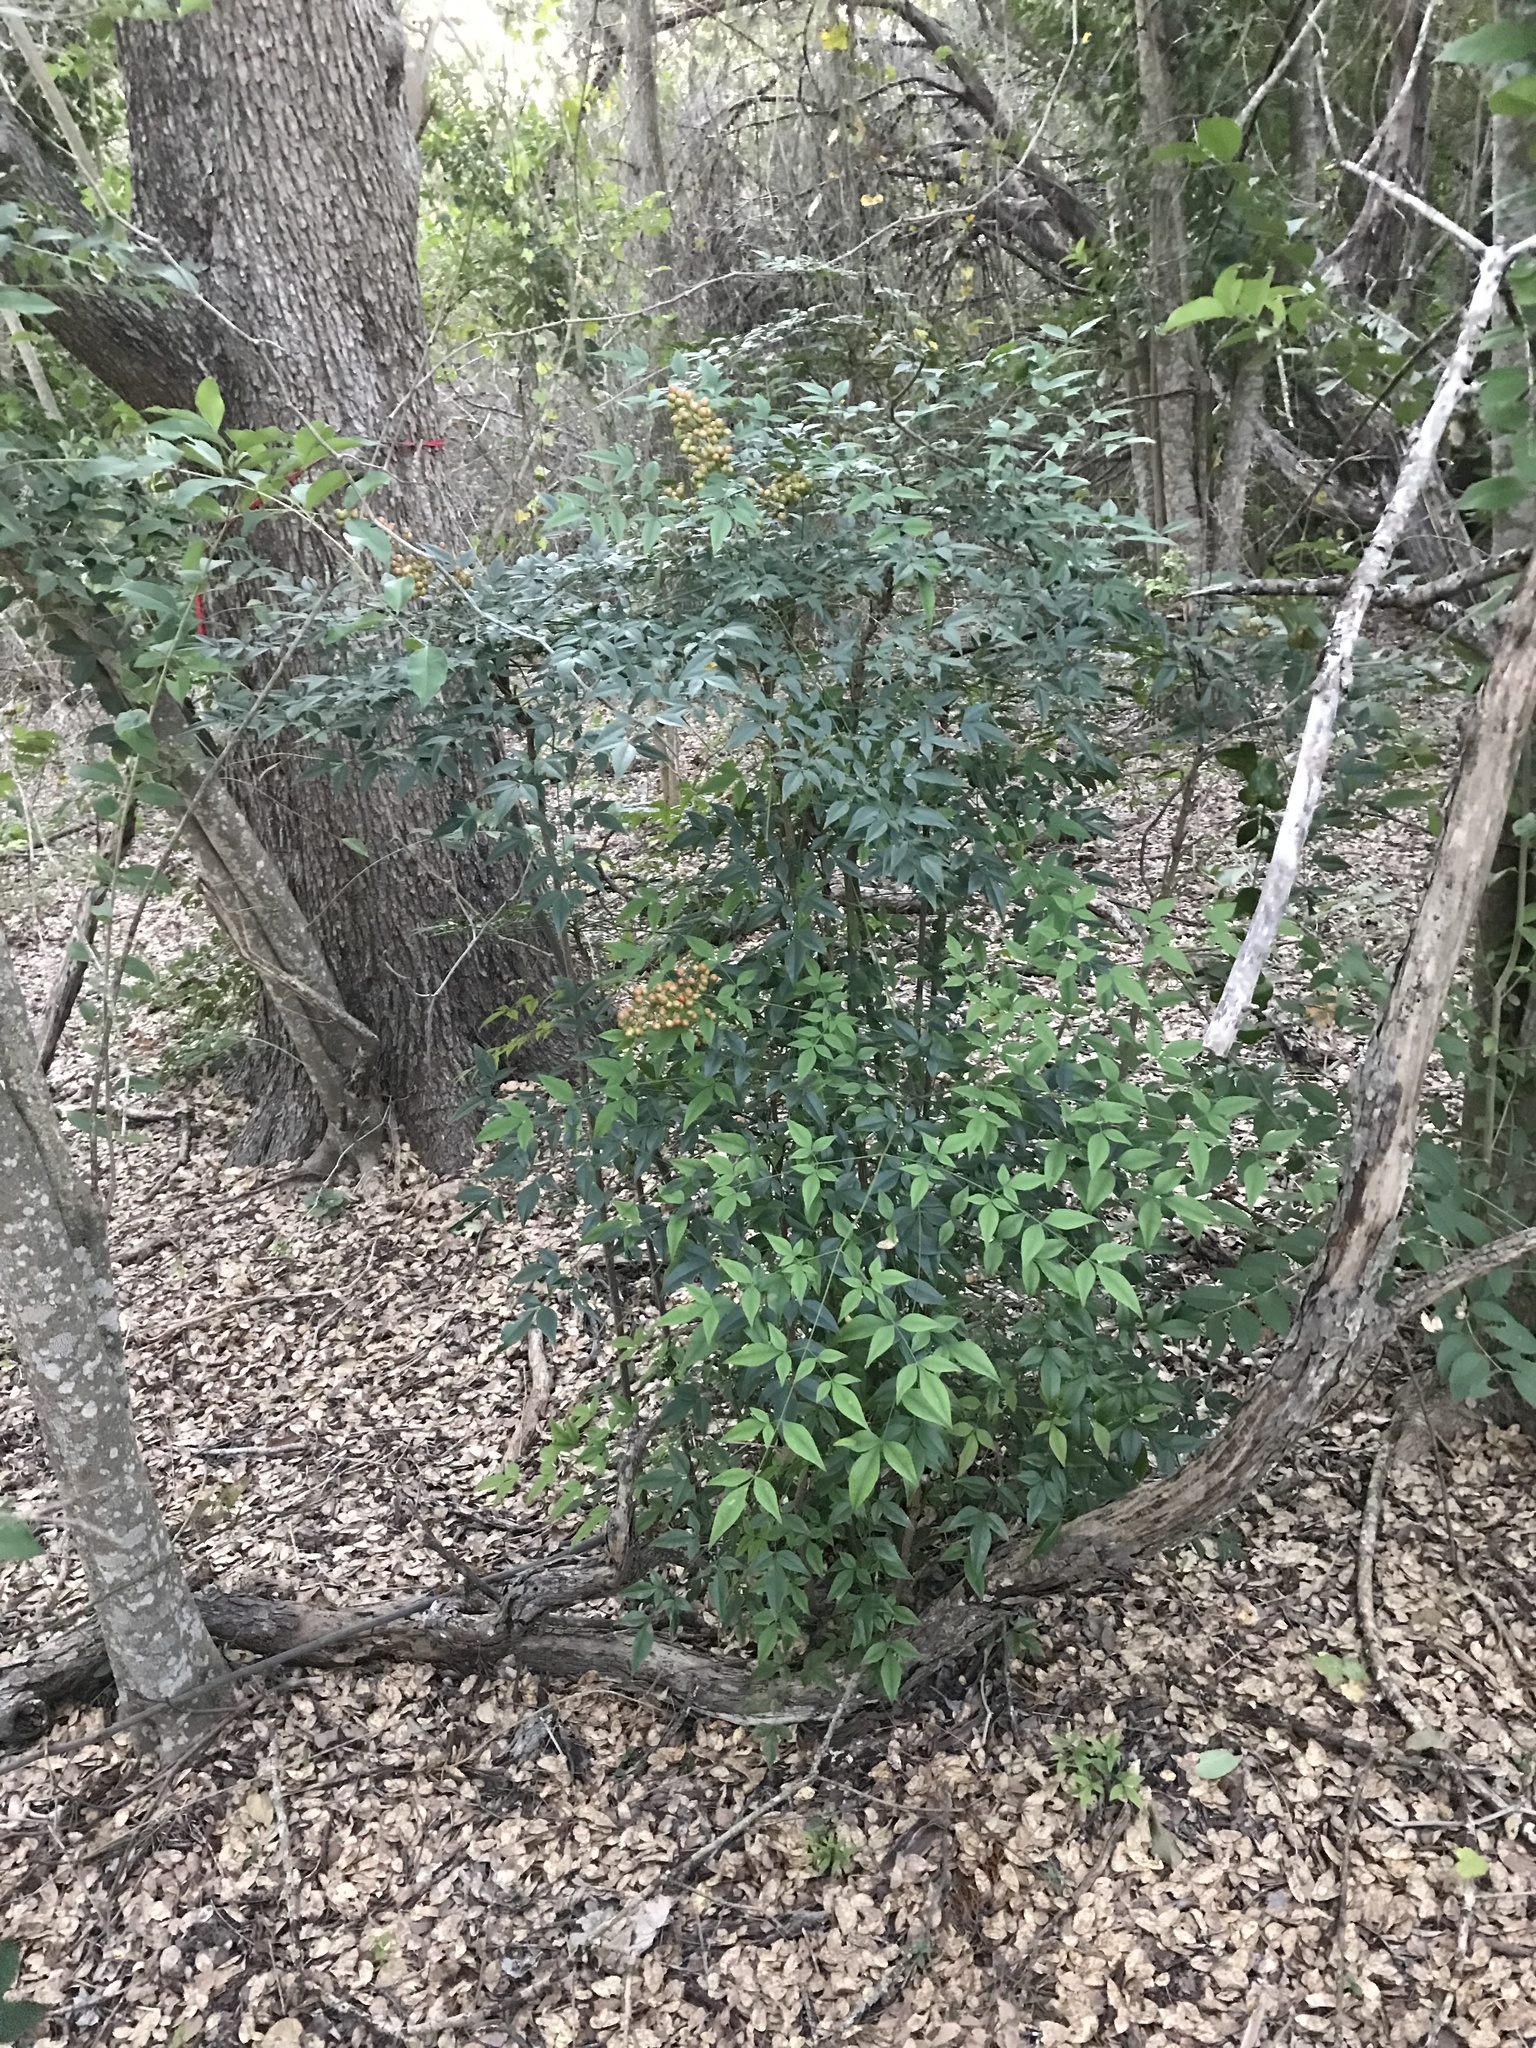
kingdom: Plantae
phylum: Tracheophyta
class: Magnoliopsida
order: Ranunculales
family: Berberidaceae
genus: Nandina
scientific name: Nandina domestica
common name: Sacred bamboo
